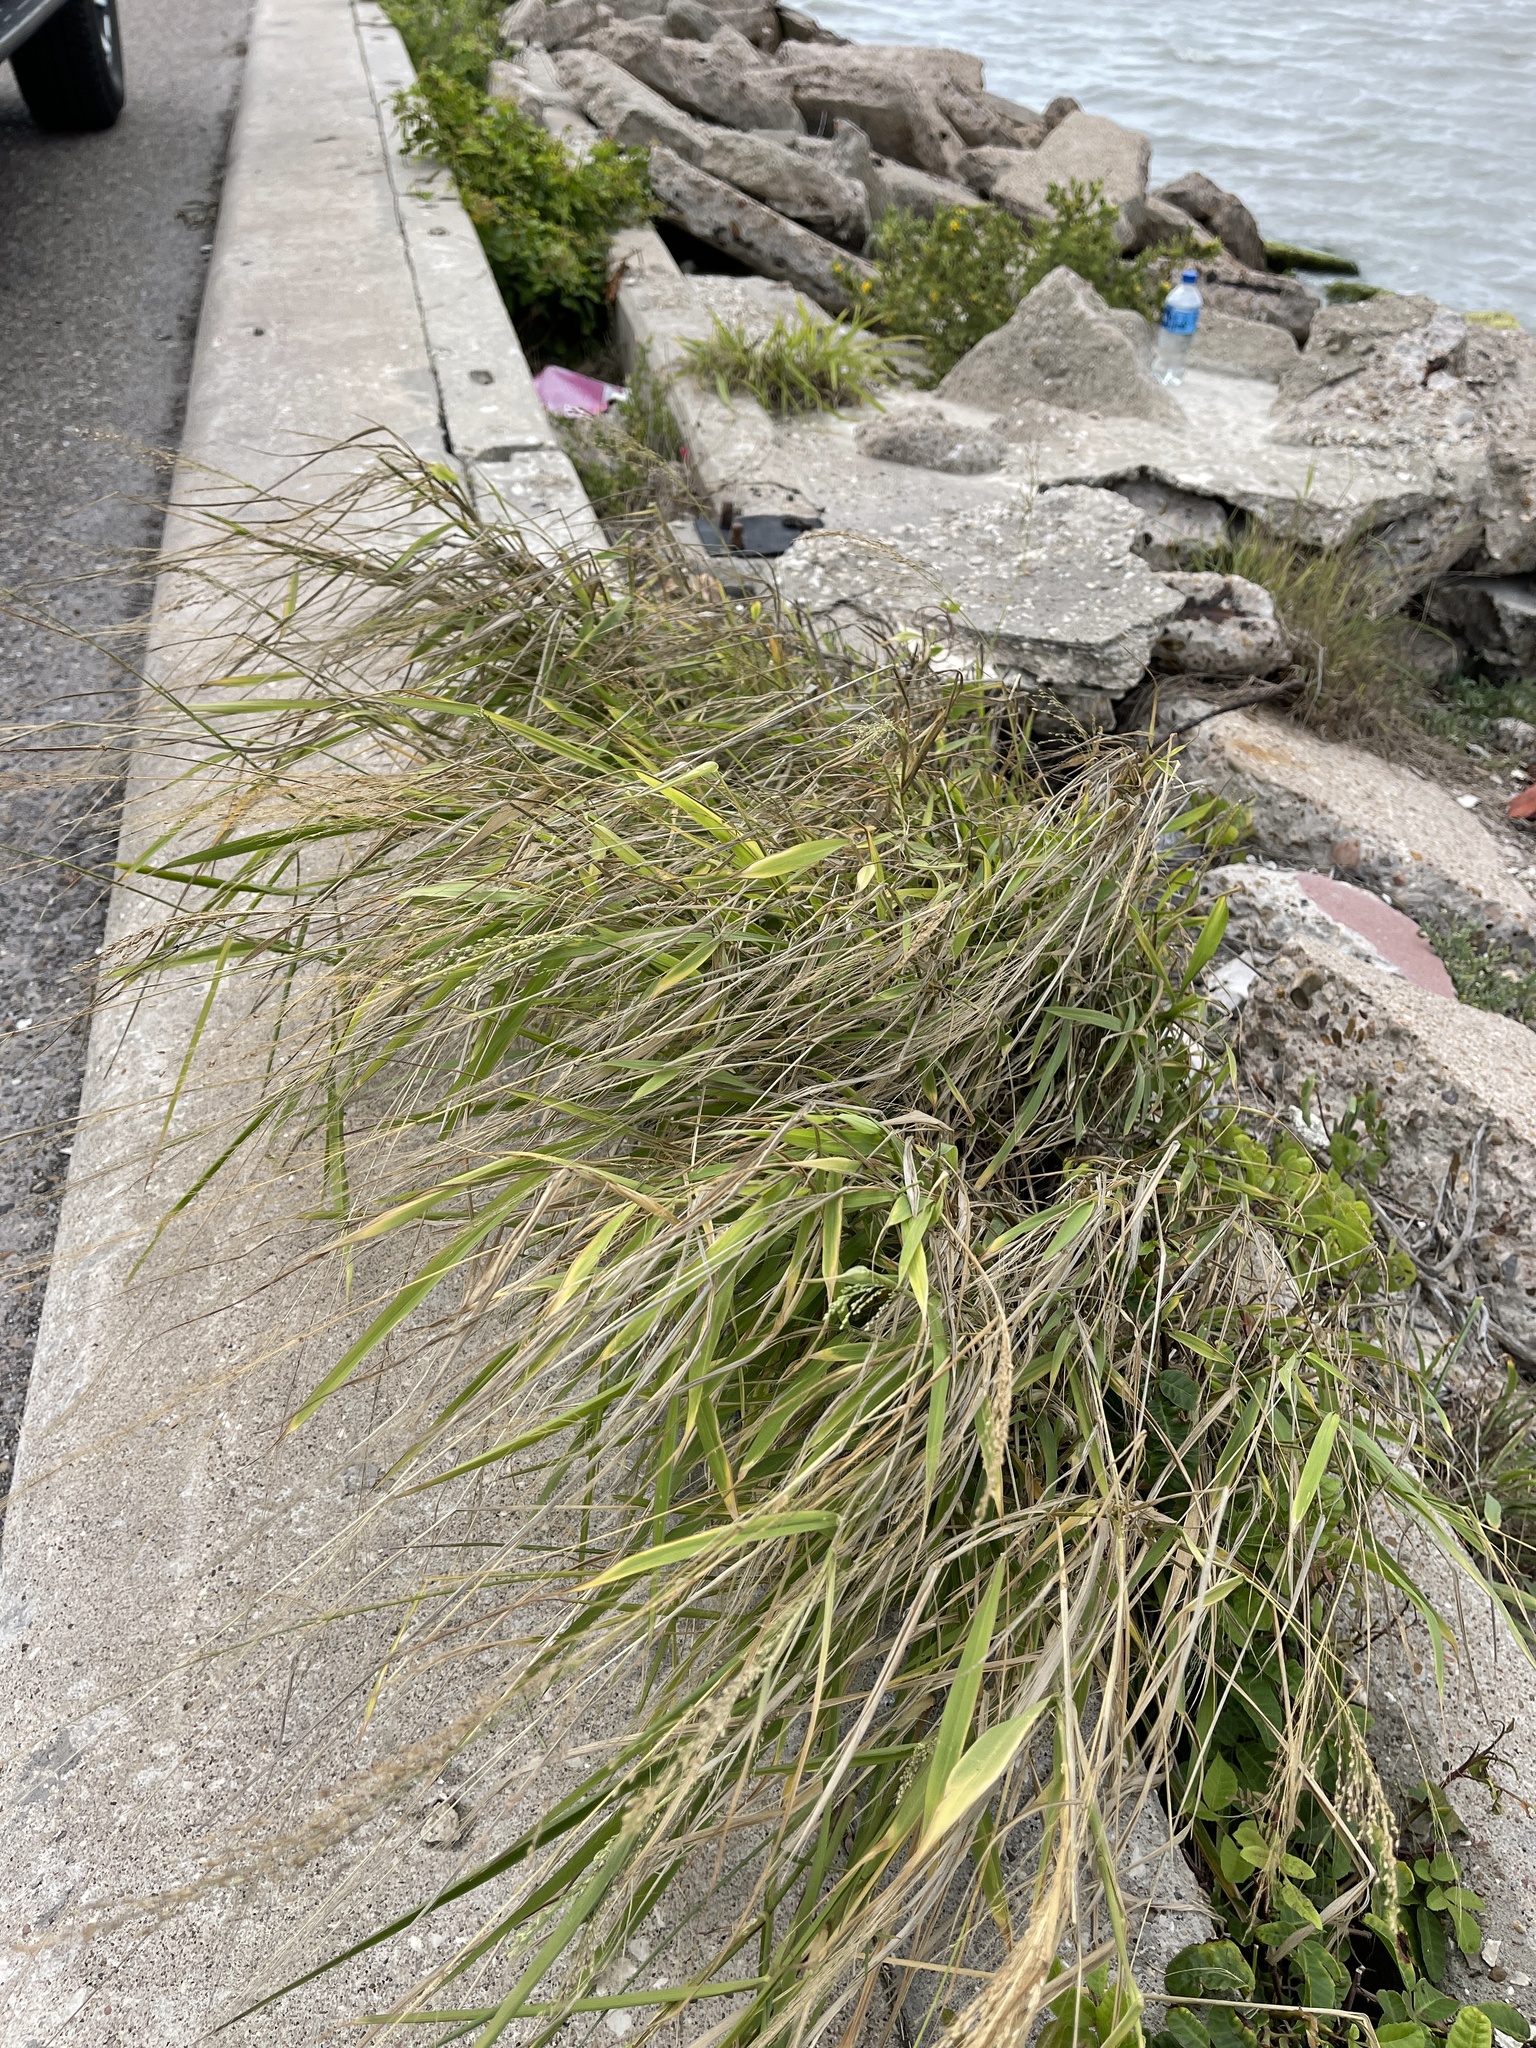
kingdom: Plantae
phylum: Tracheophyta
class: Liliopsida
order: Poales
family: Poaceae
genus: Megathyrsus
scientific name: Megathyrsus maximus
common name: Guineagrass
